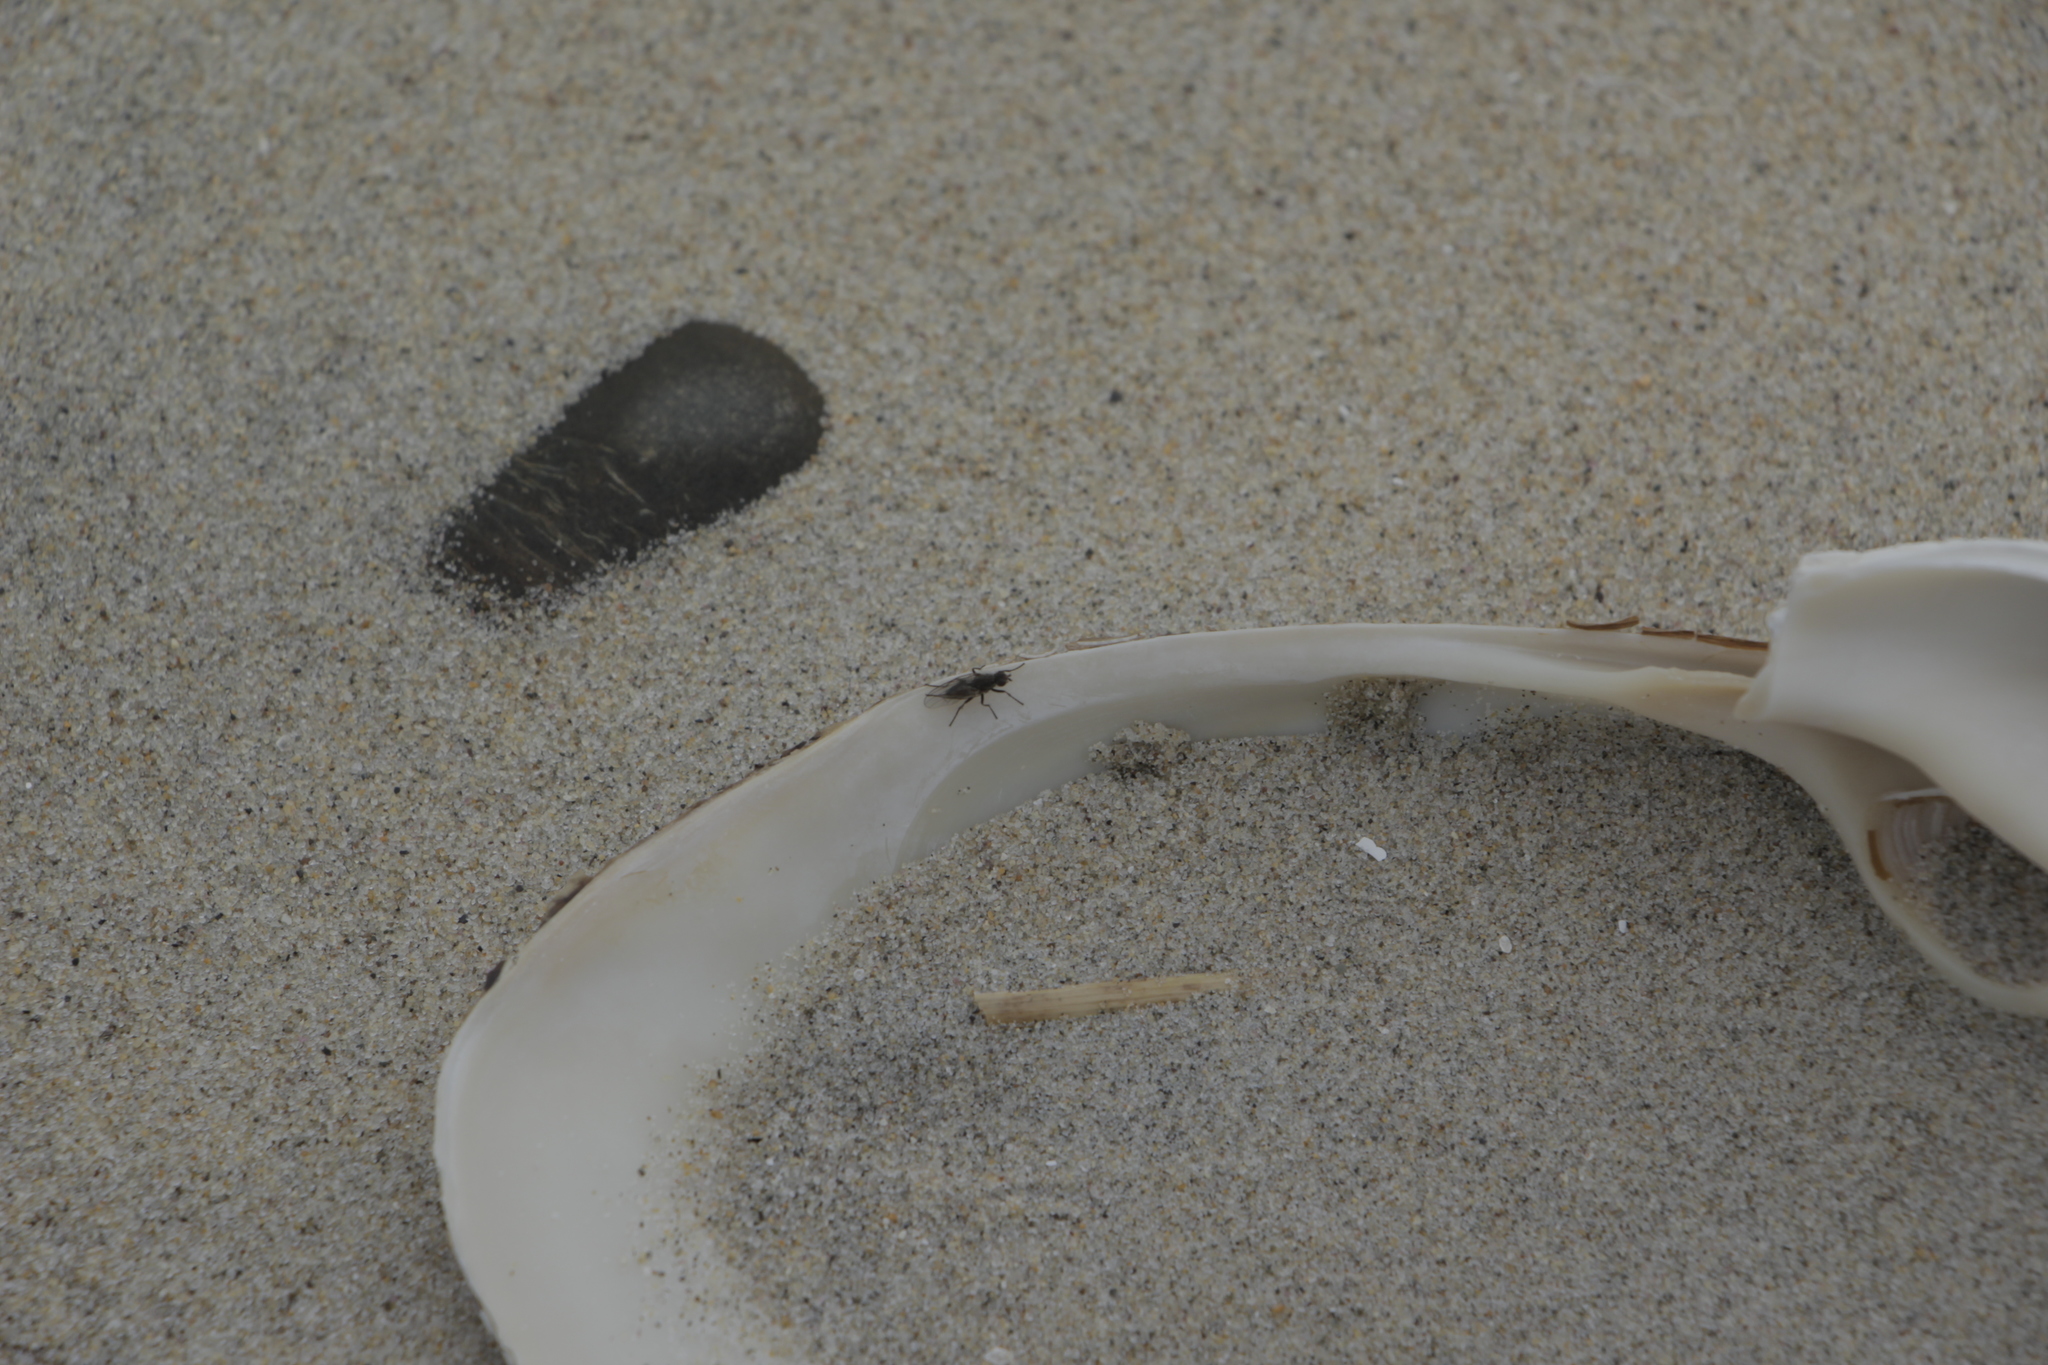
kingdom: Animalia
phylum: Mollusca
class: Bivalvia
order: Venerida
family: Mactridae
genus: Spisula
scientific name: Spisula solidissima
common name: Atlantic surf clam
